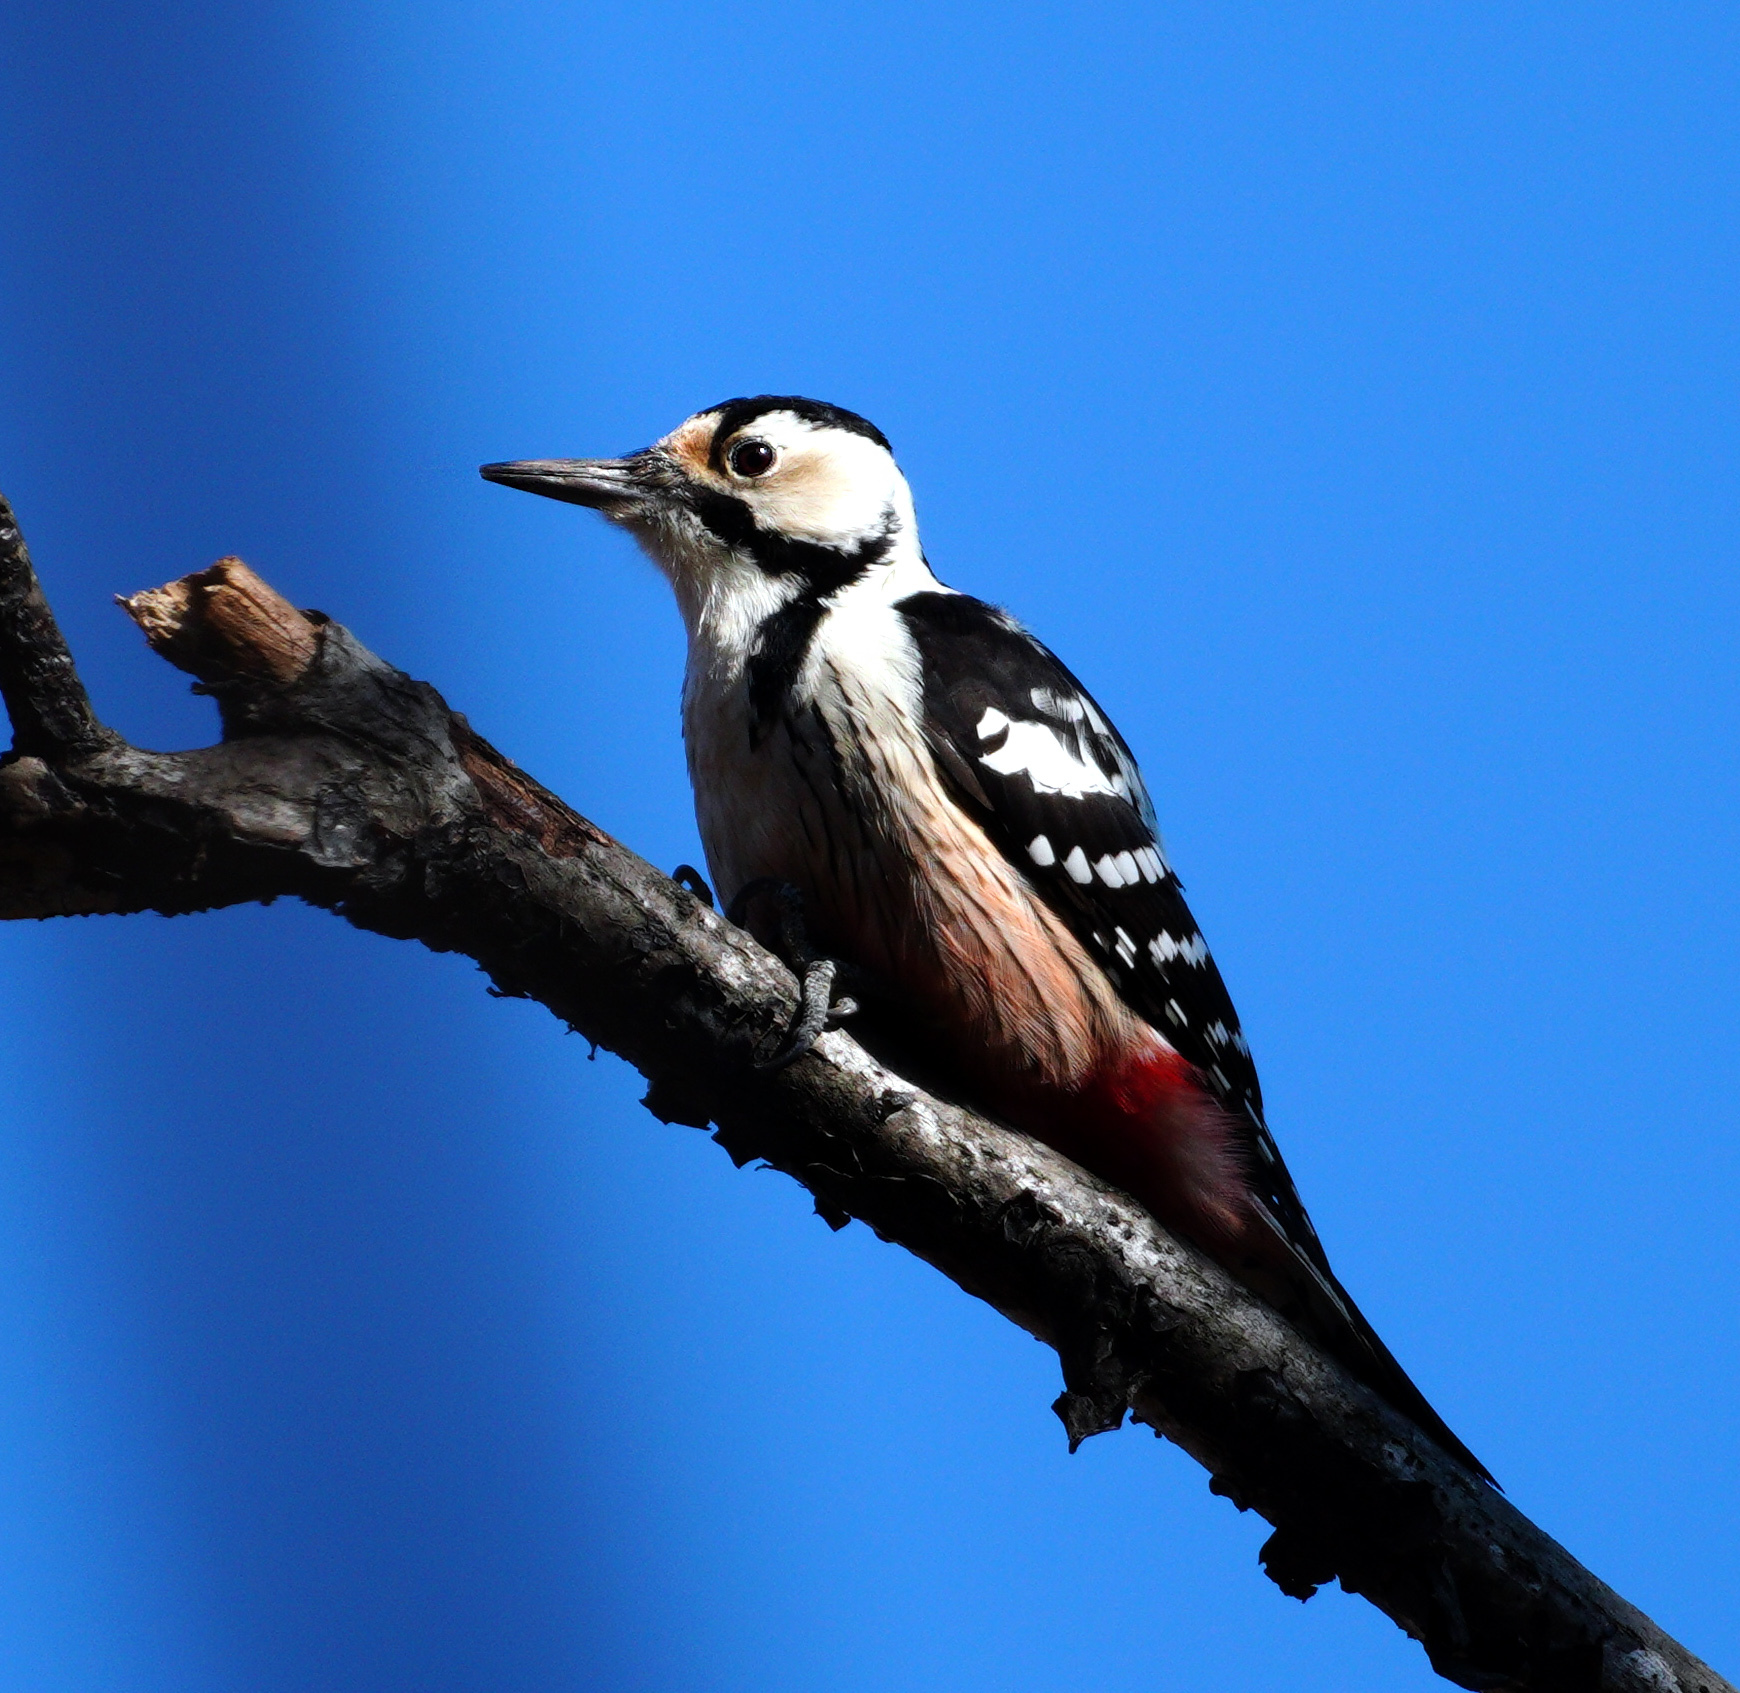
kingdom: Animalia
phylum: Chordata
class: Aves
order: Piciformes
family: Picidae
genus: Dendrocopos
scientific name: Dendrocopos leucotos
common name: White-backed woodpecker
